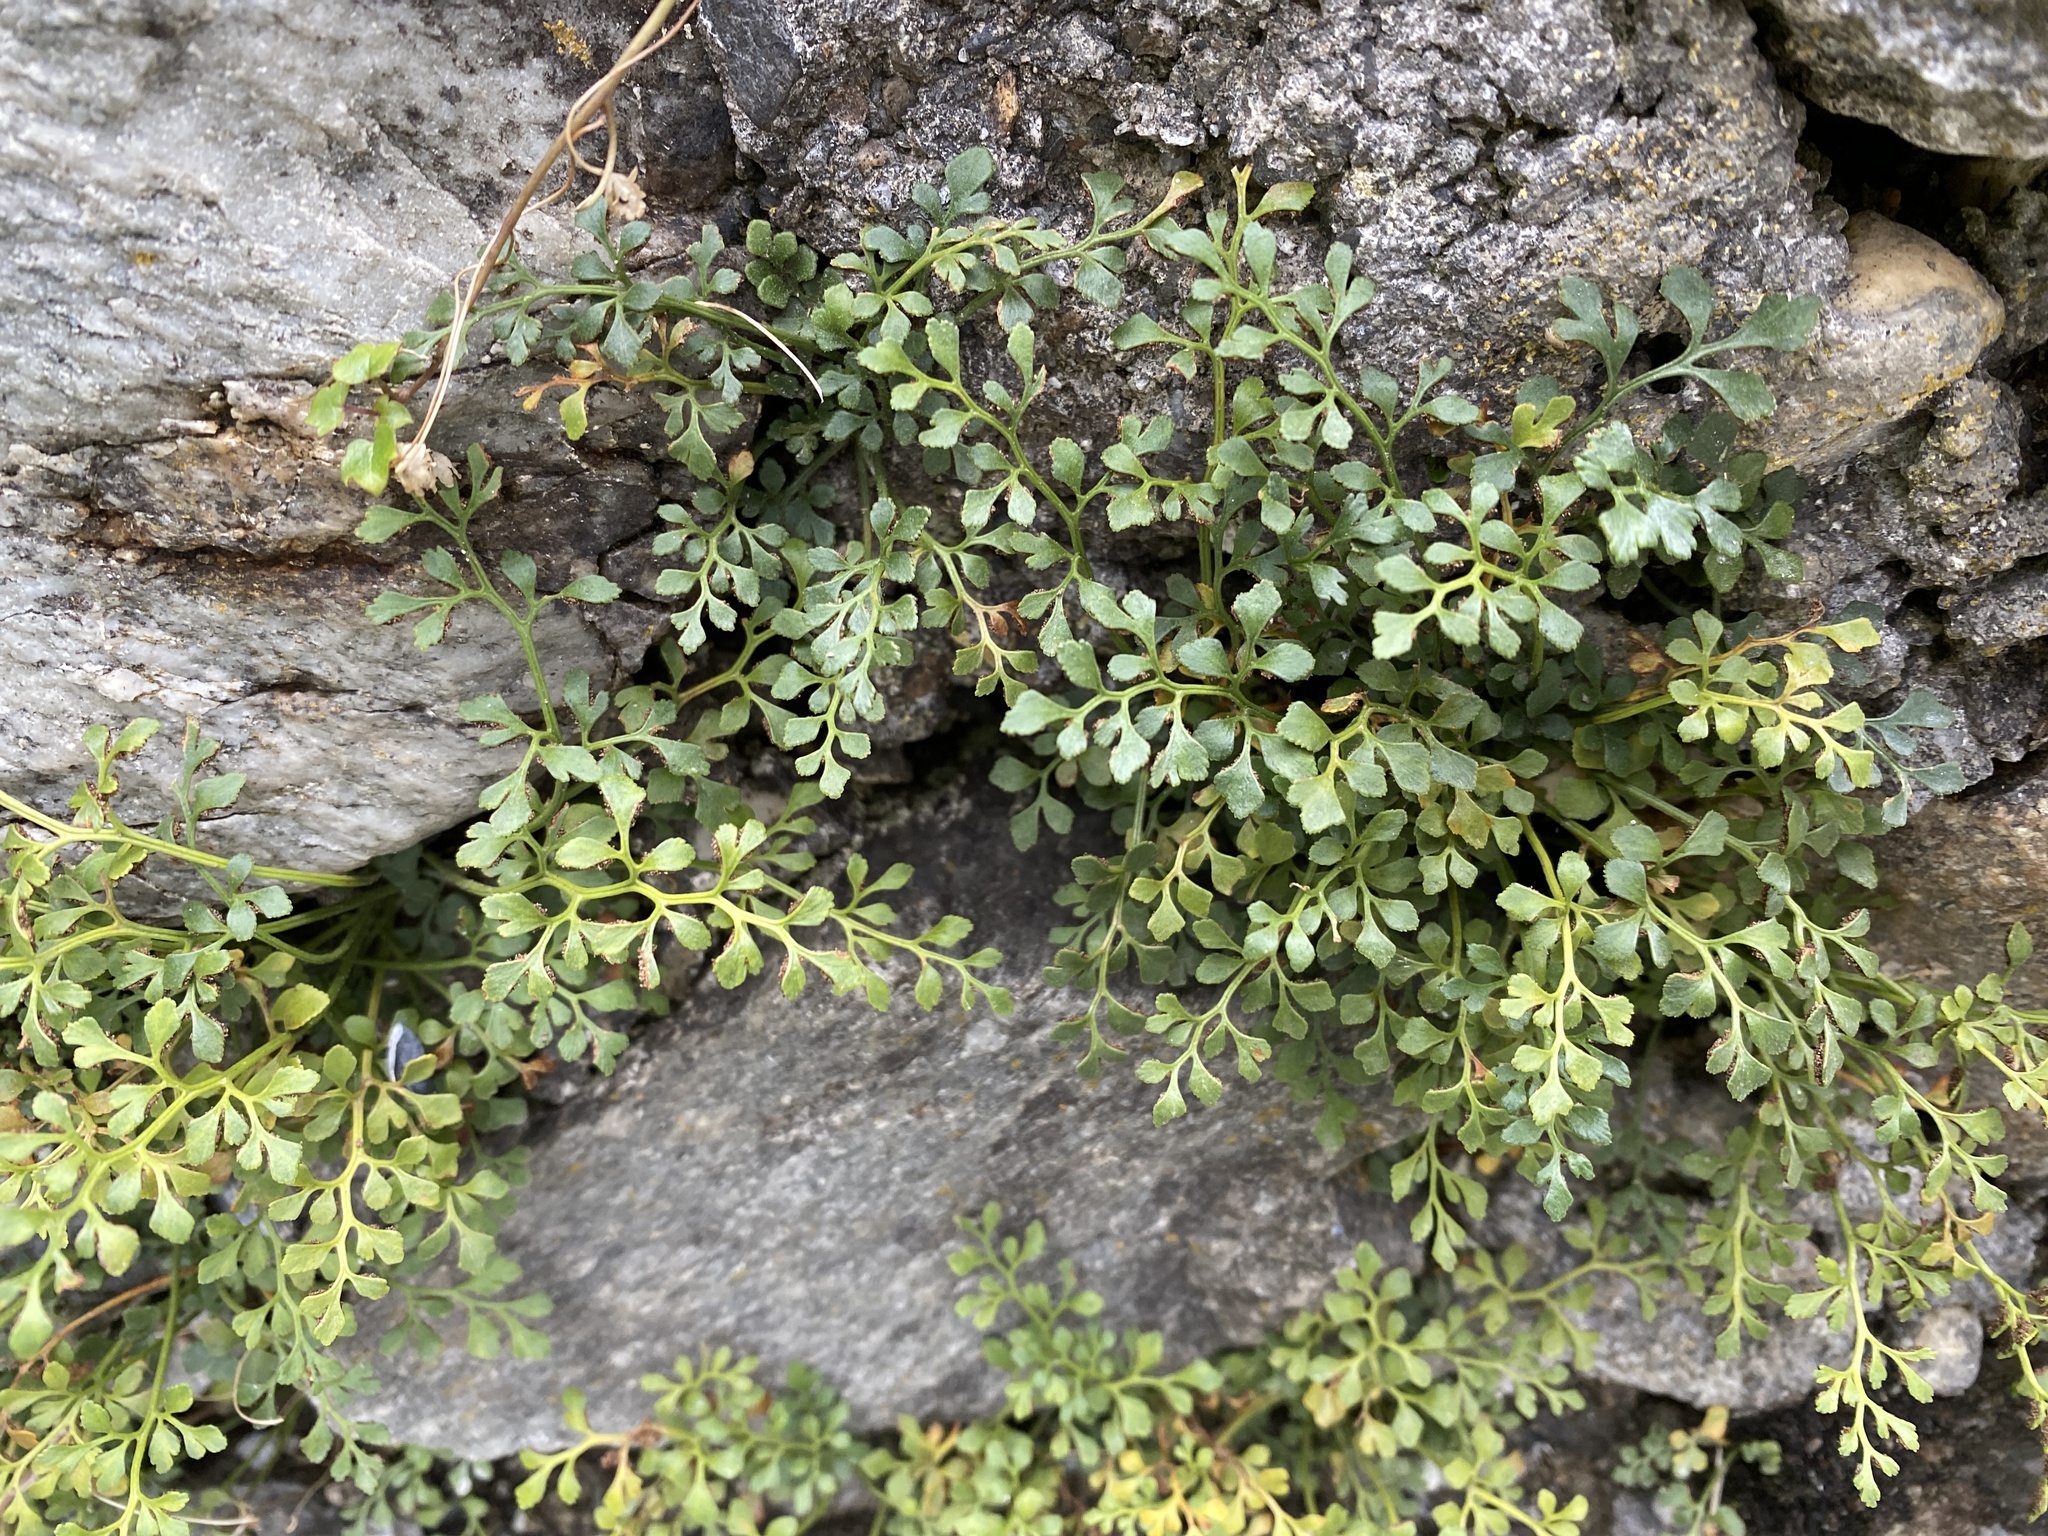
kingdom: Plantae
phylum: Tracheophyta
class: Polypodiopsida
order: Polypodiales
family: Aspleniaceae
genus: Asplenium
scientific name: Asplenium ruta-muraria
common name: Wall-rue
